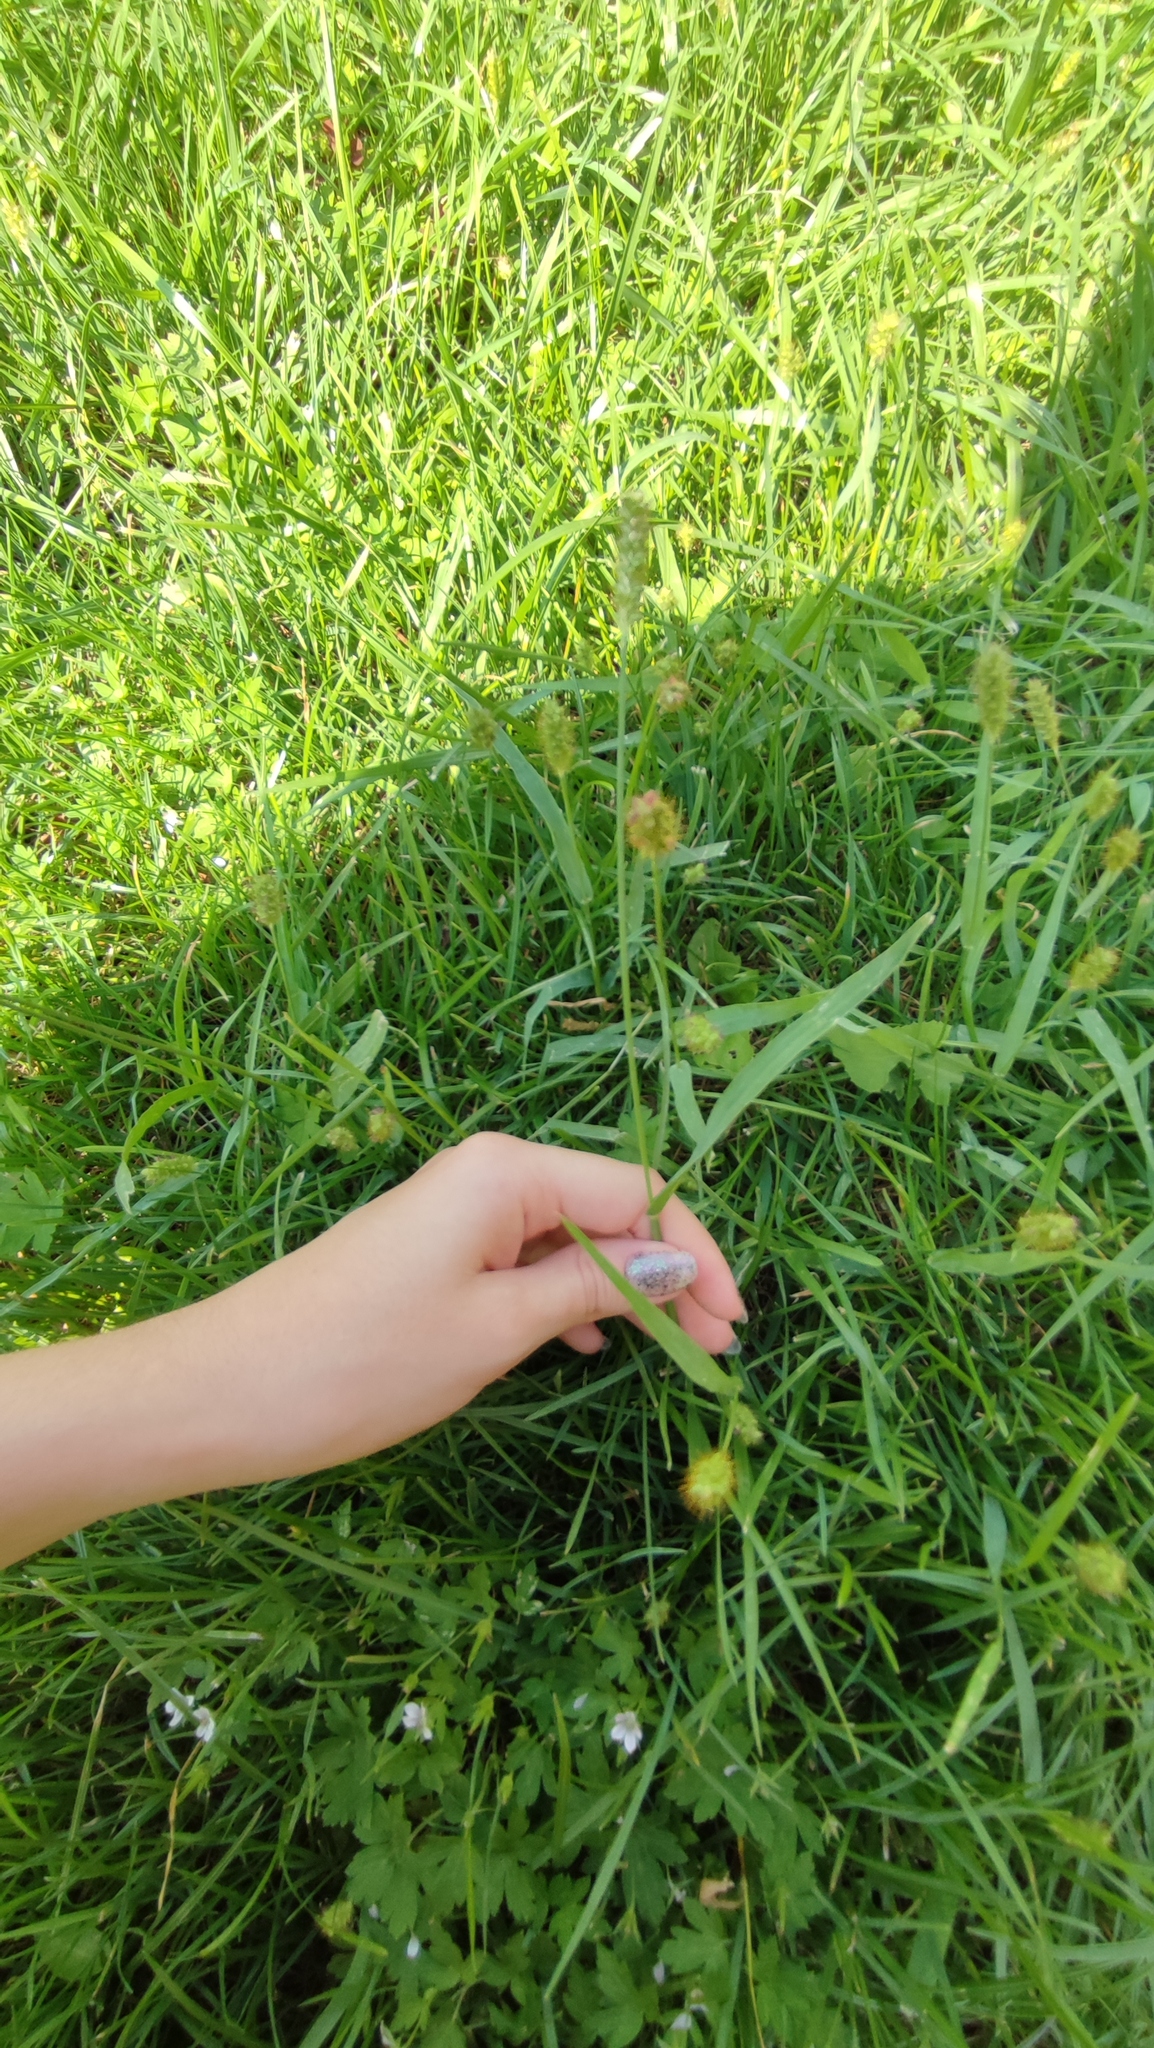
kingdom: Plantae
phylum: Tracheophyta
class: Liliopsida
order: Poales
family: Poaceae
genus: Setaria
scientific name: Setaria pumila
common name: Yellow bristle-grass
